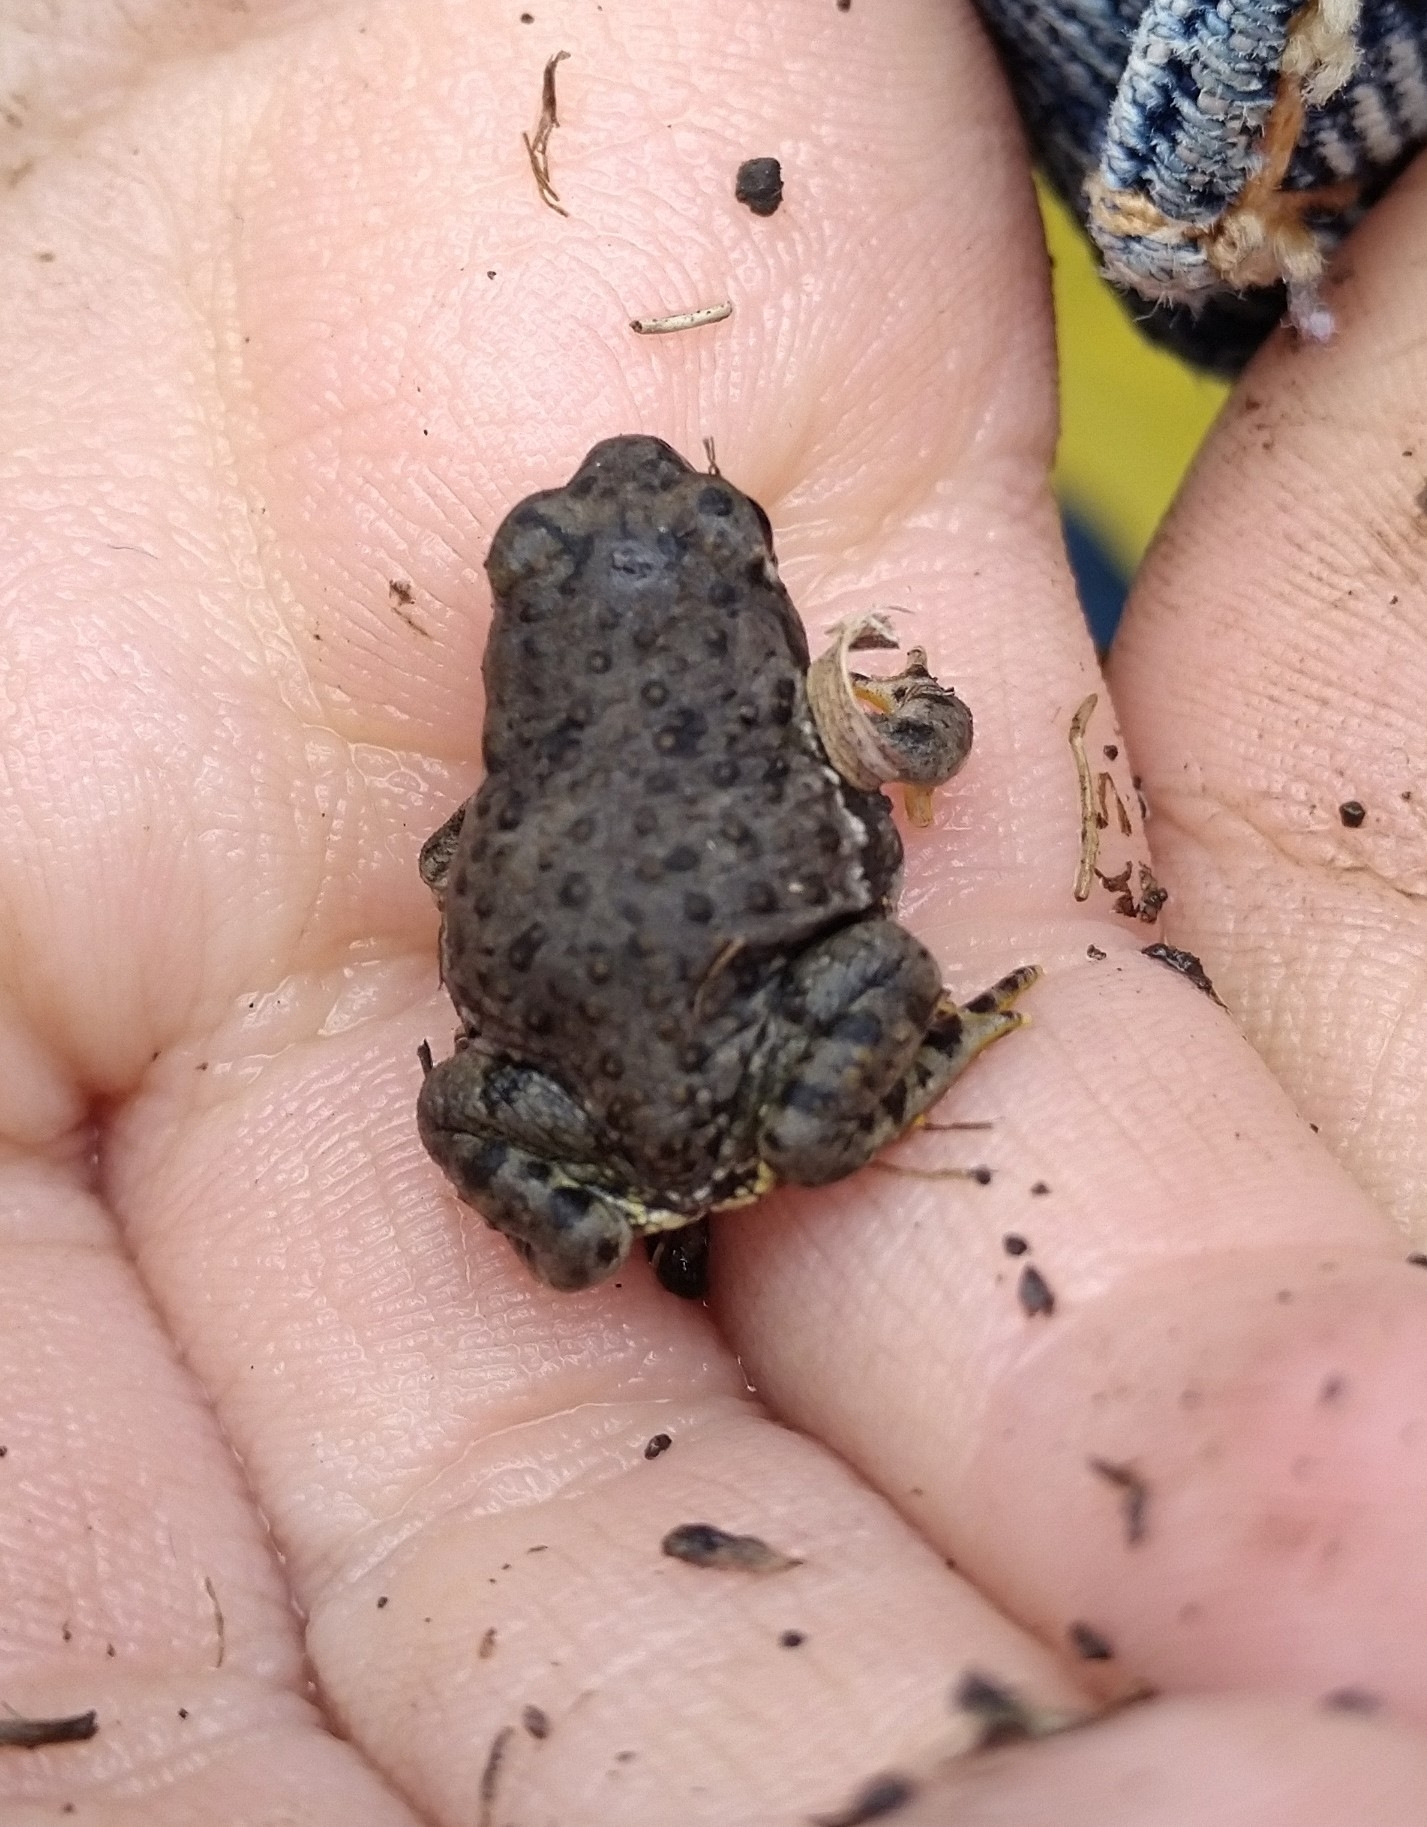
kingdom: Animalia
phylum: Chordata
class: Amphibia
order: Anura
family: Bufonidae
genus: Anaxyrus
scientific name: Anaxyrus compactilis
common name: Plateau toad
